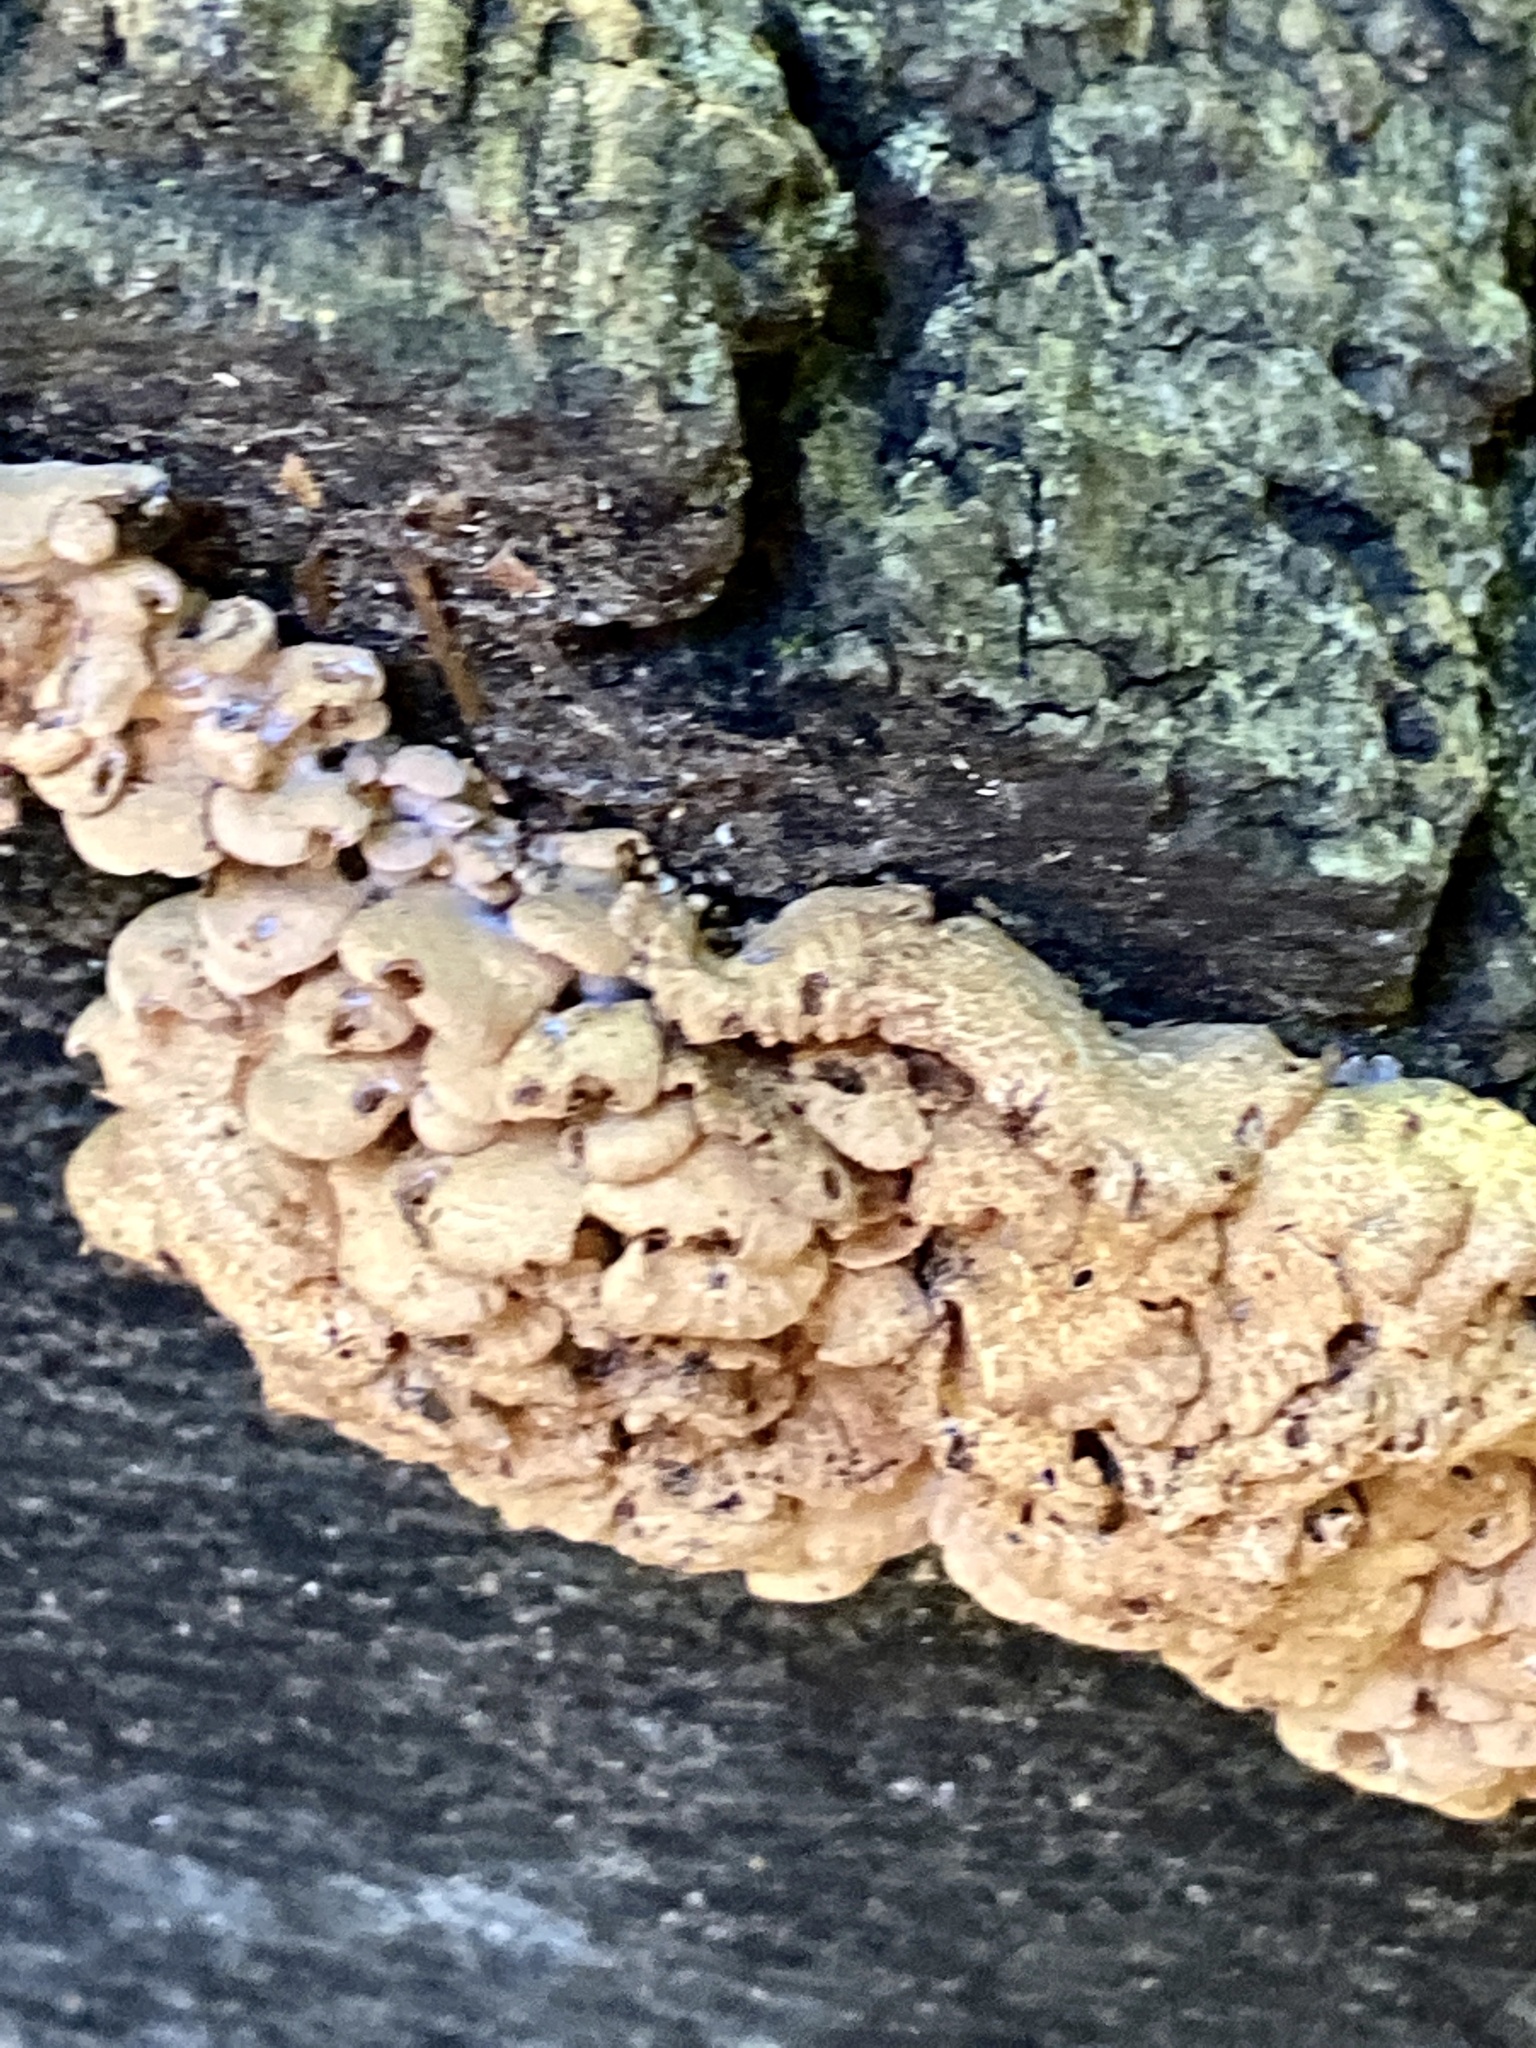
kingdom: Fungi
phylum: Basidiomycota
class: Agaricomycetes
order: Agaricales
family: Mycenaceae
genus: Panellus
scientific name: Panellus stipticus
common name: Bitter oysterling
